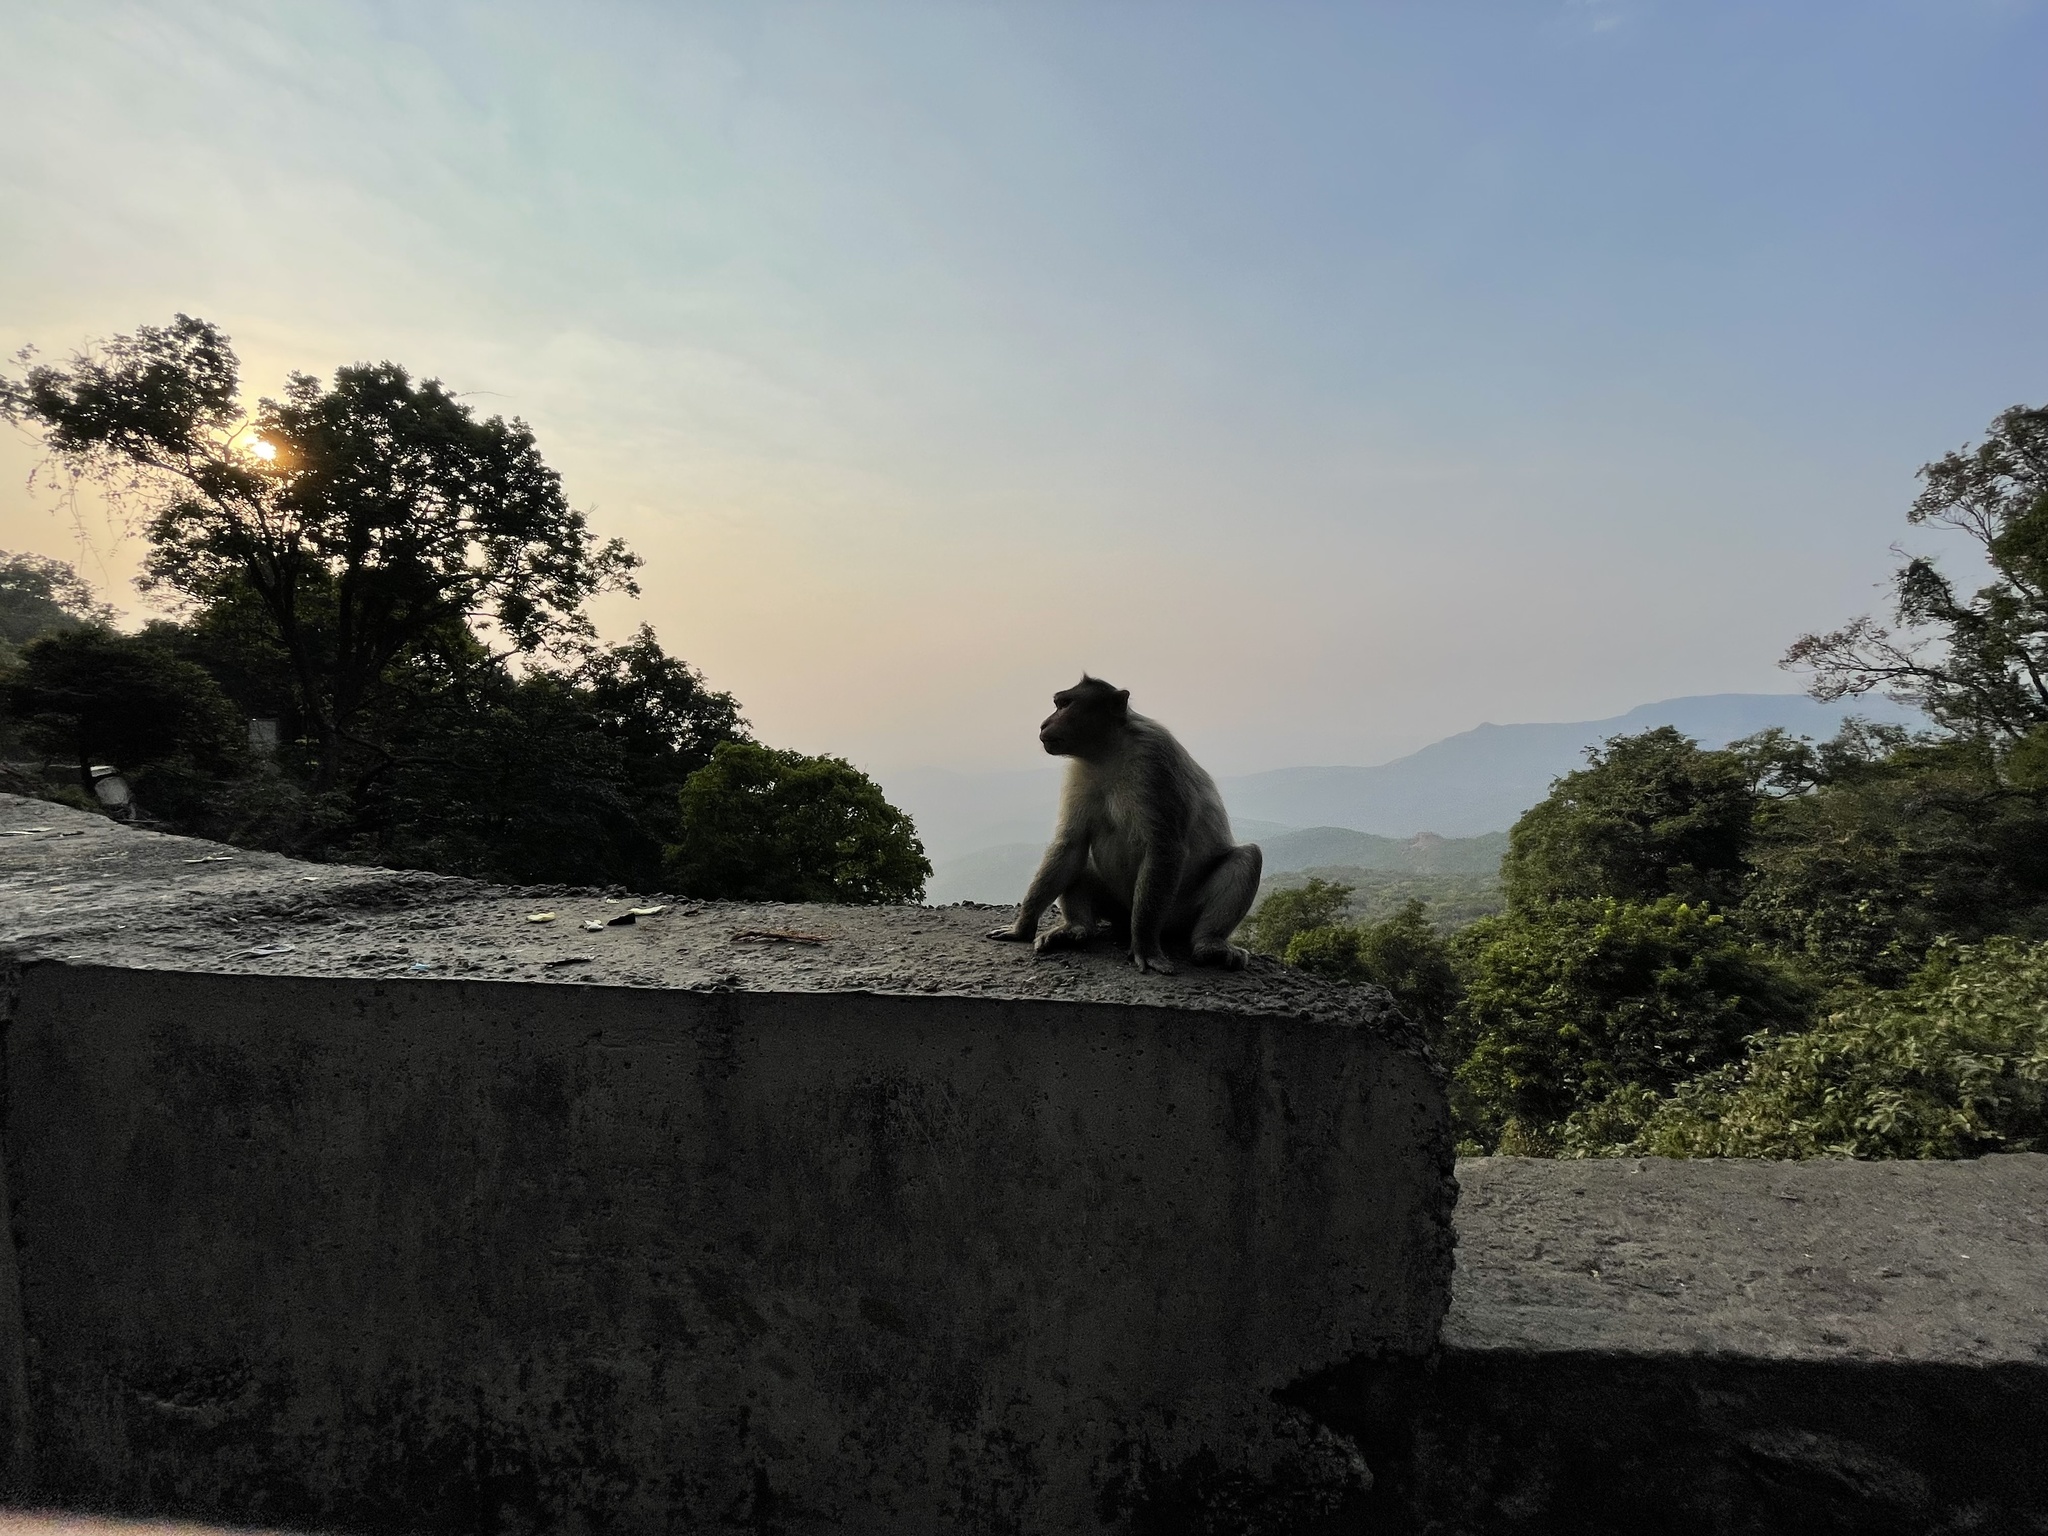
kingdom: Animalia
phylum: Chordata
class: Mammalia
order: Primates
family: Cercopithecidae
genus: Macaca
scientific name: Macaca radiata
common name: Bonnet macaque
